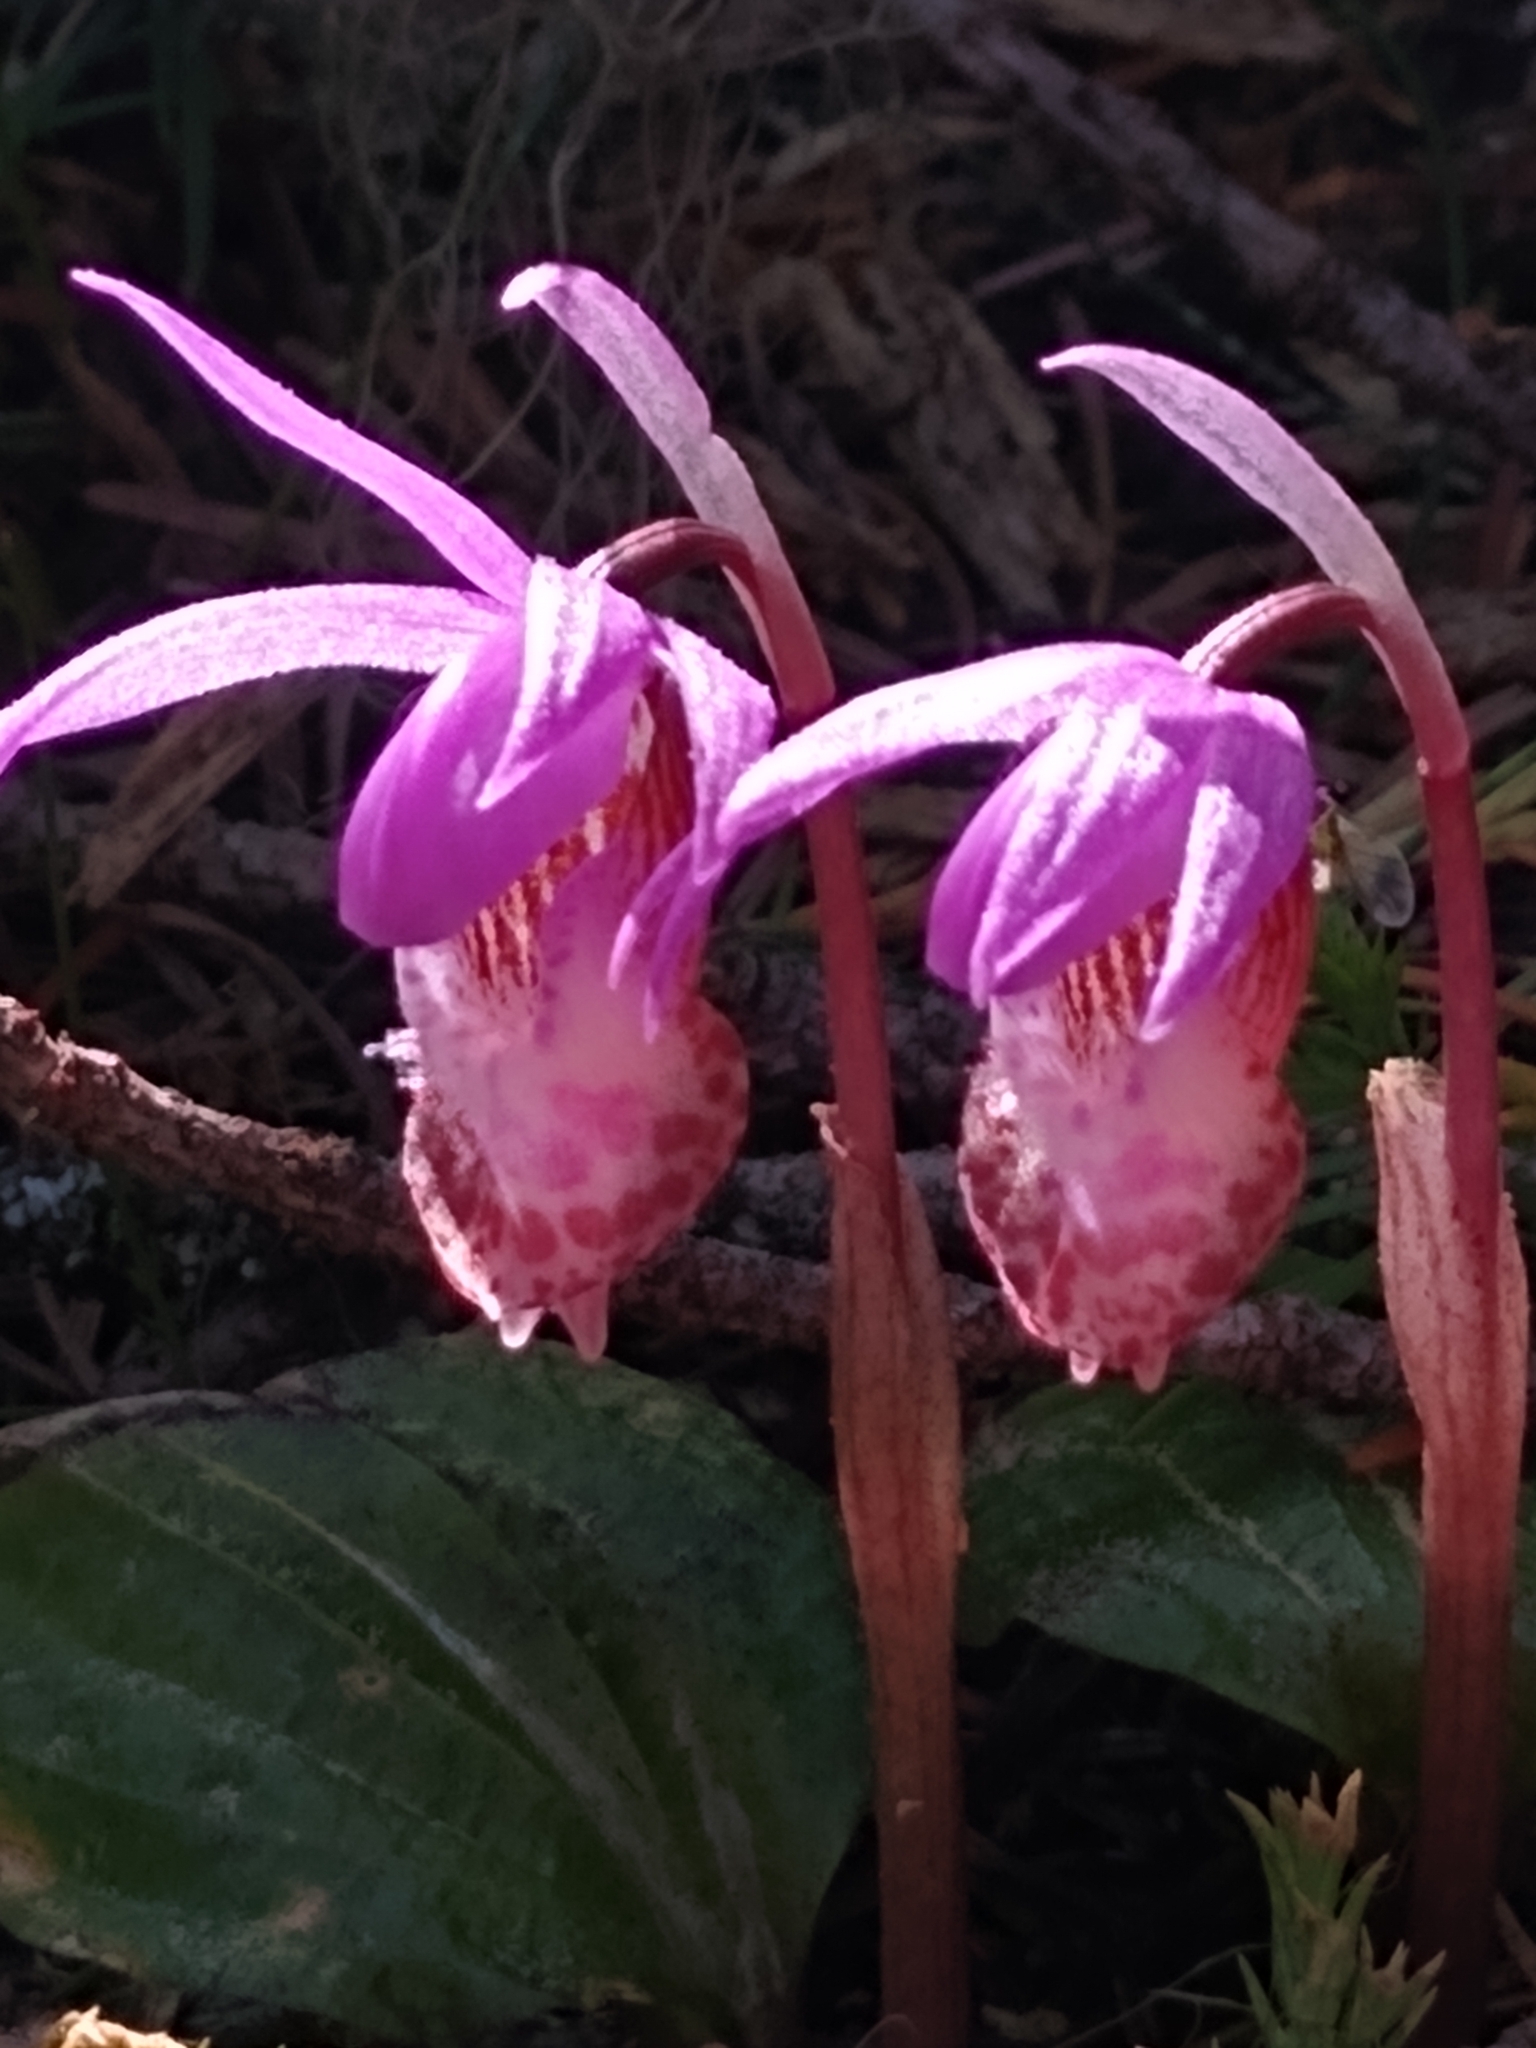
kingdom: Plantae
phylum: Tracheophyta
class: Liliopsida
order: Asparagales
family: Orchidaceae
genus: Calypso
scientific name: Calypso bulbosa
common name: Calypso
